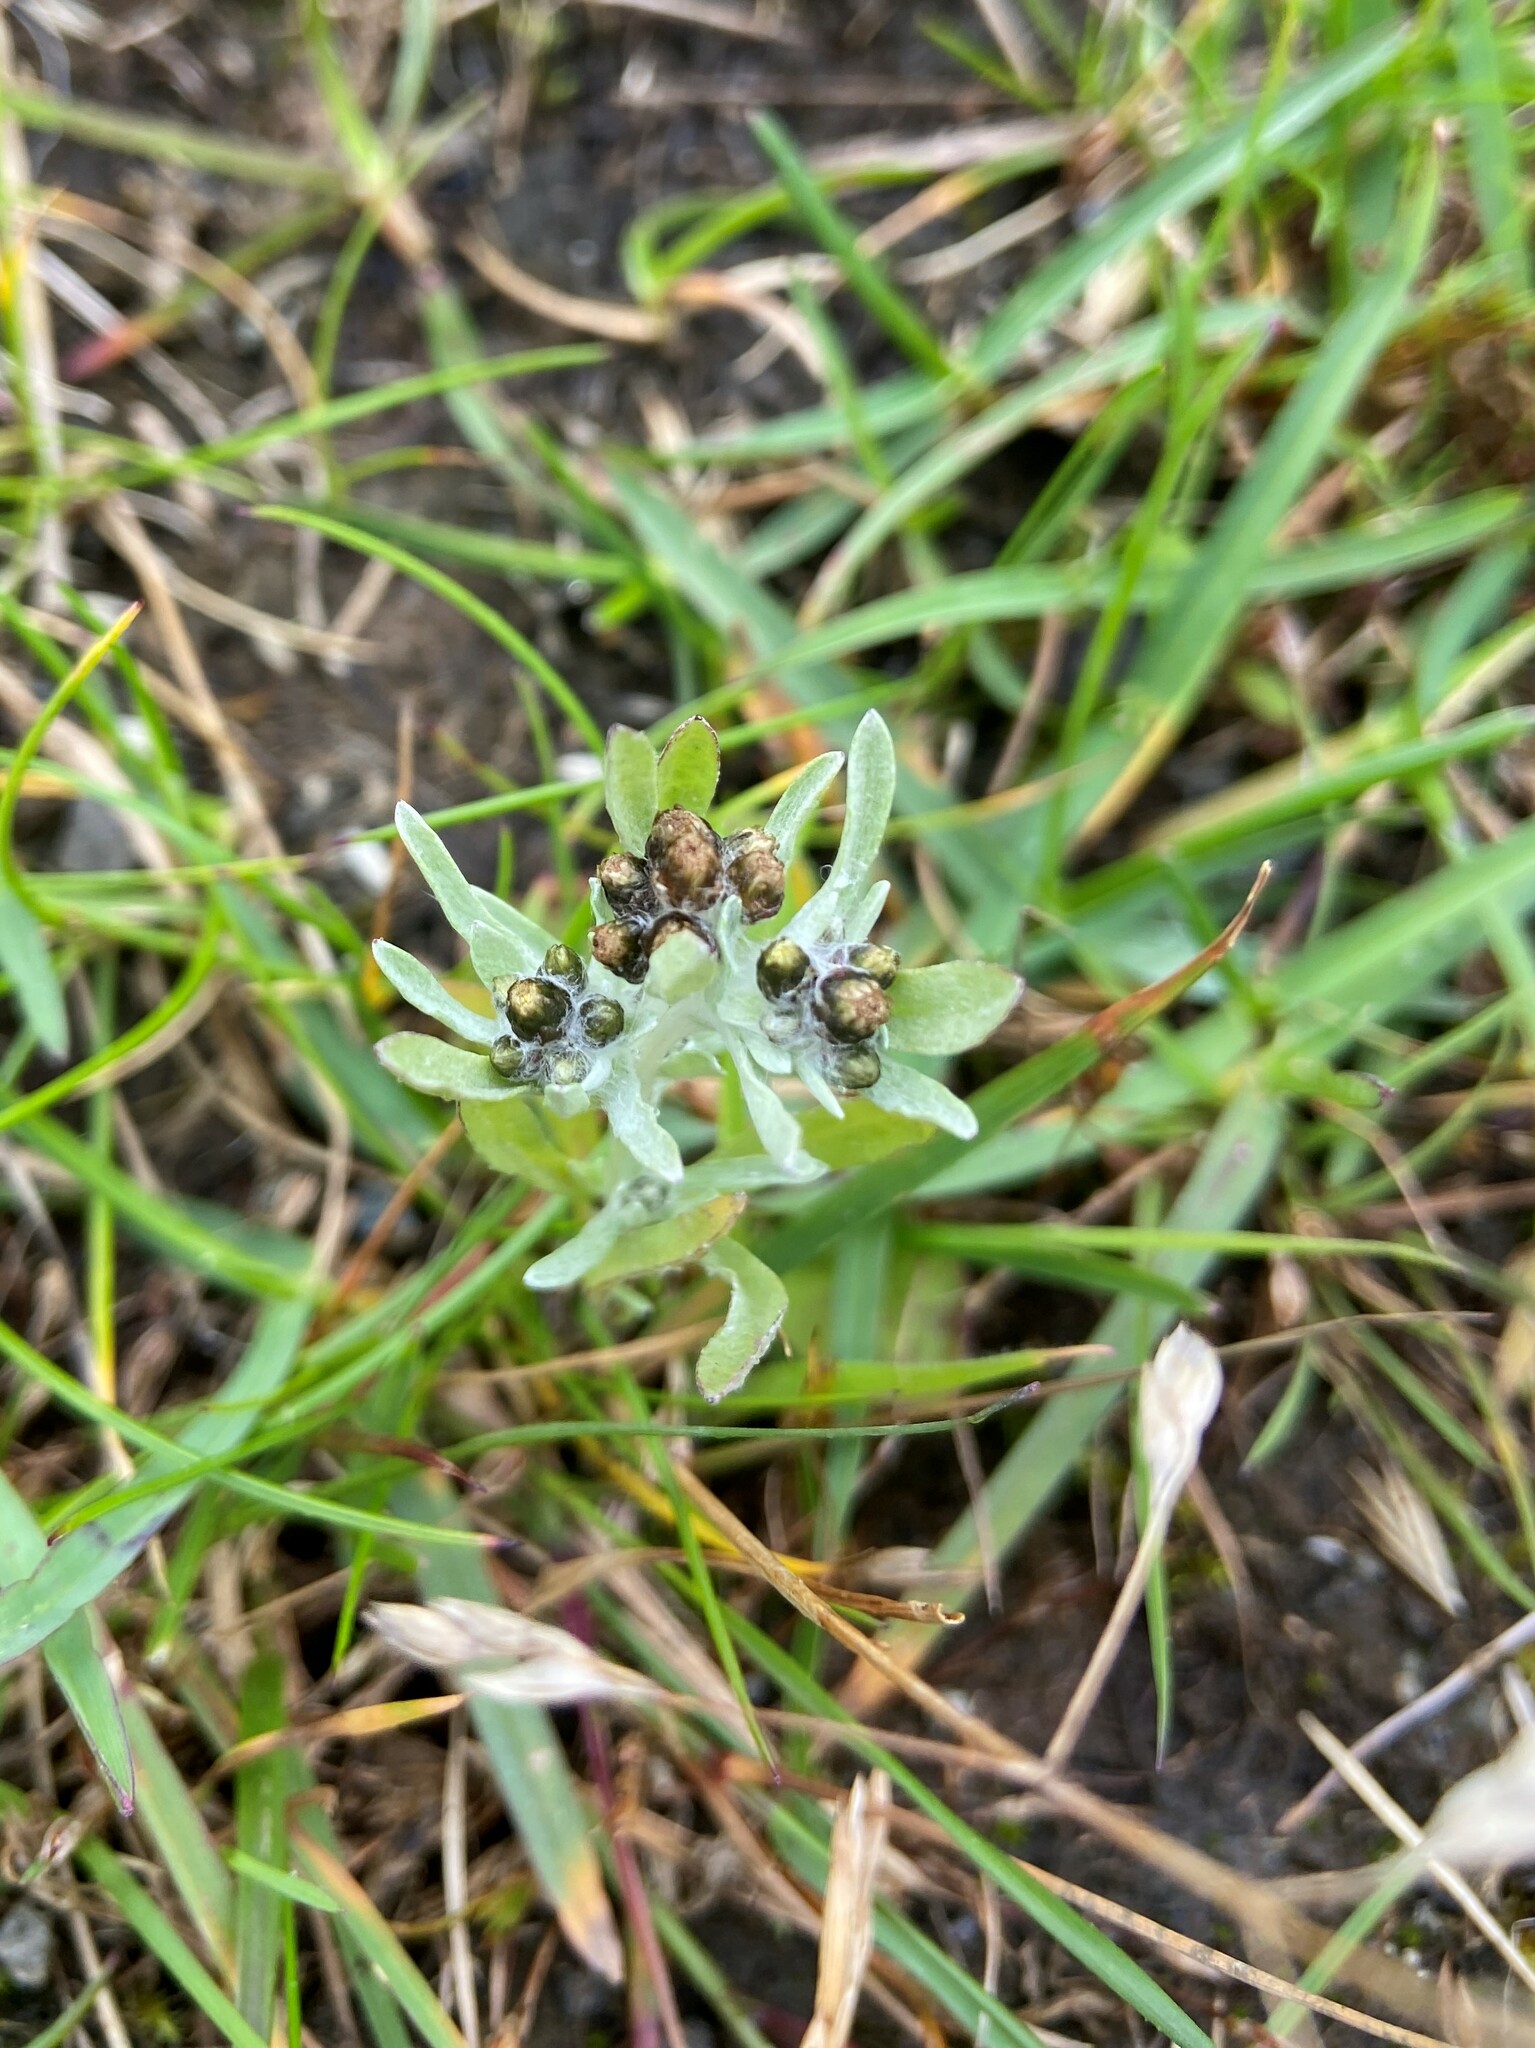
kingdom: Plantae
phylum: Tracheophyta
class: Magnoliopsida
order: Asterales
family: Asteraceae
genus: Gnaphalium
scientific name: Gnaphalium uliginosum
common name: Marsh cudweed
